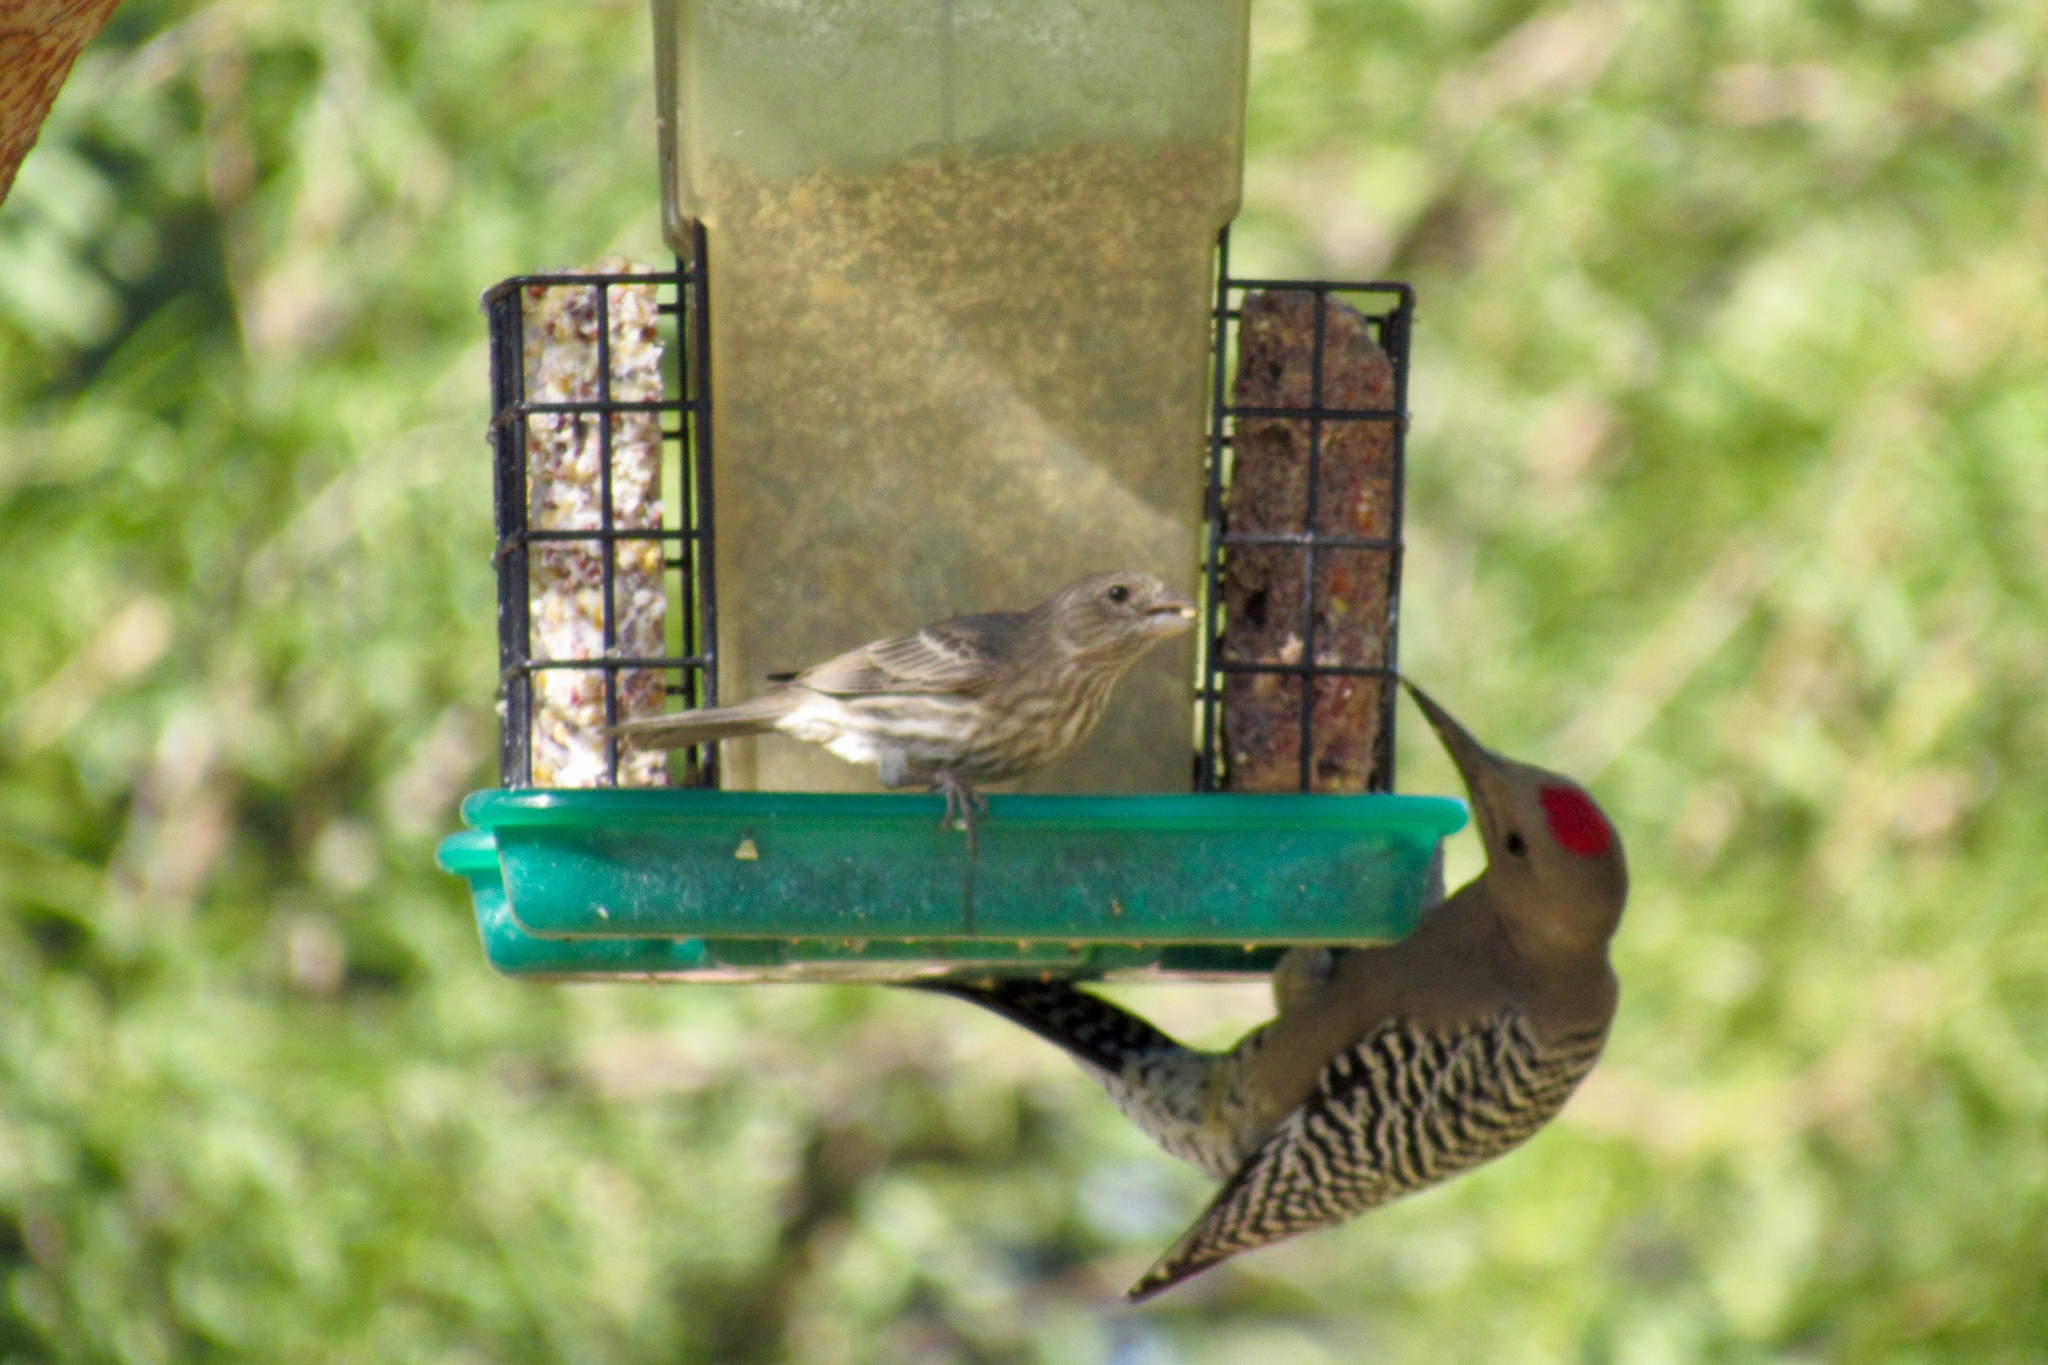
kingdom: Animalia
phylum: Chordata
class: Aves
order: Piciformes
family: Picidae
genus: Melanerpes
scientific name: Melanerpes uropygialis
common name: Gila woodpecker
